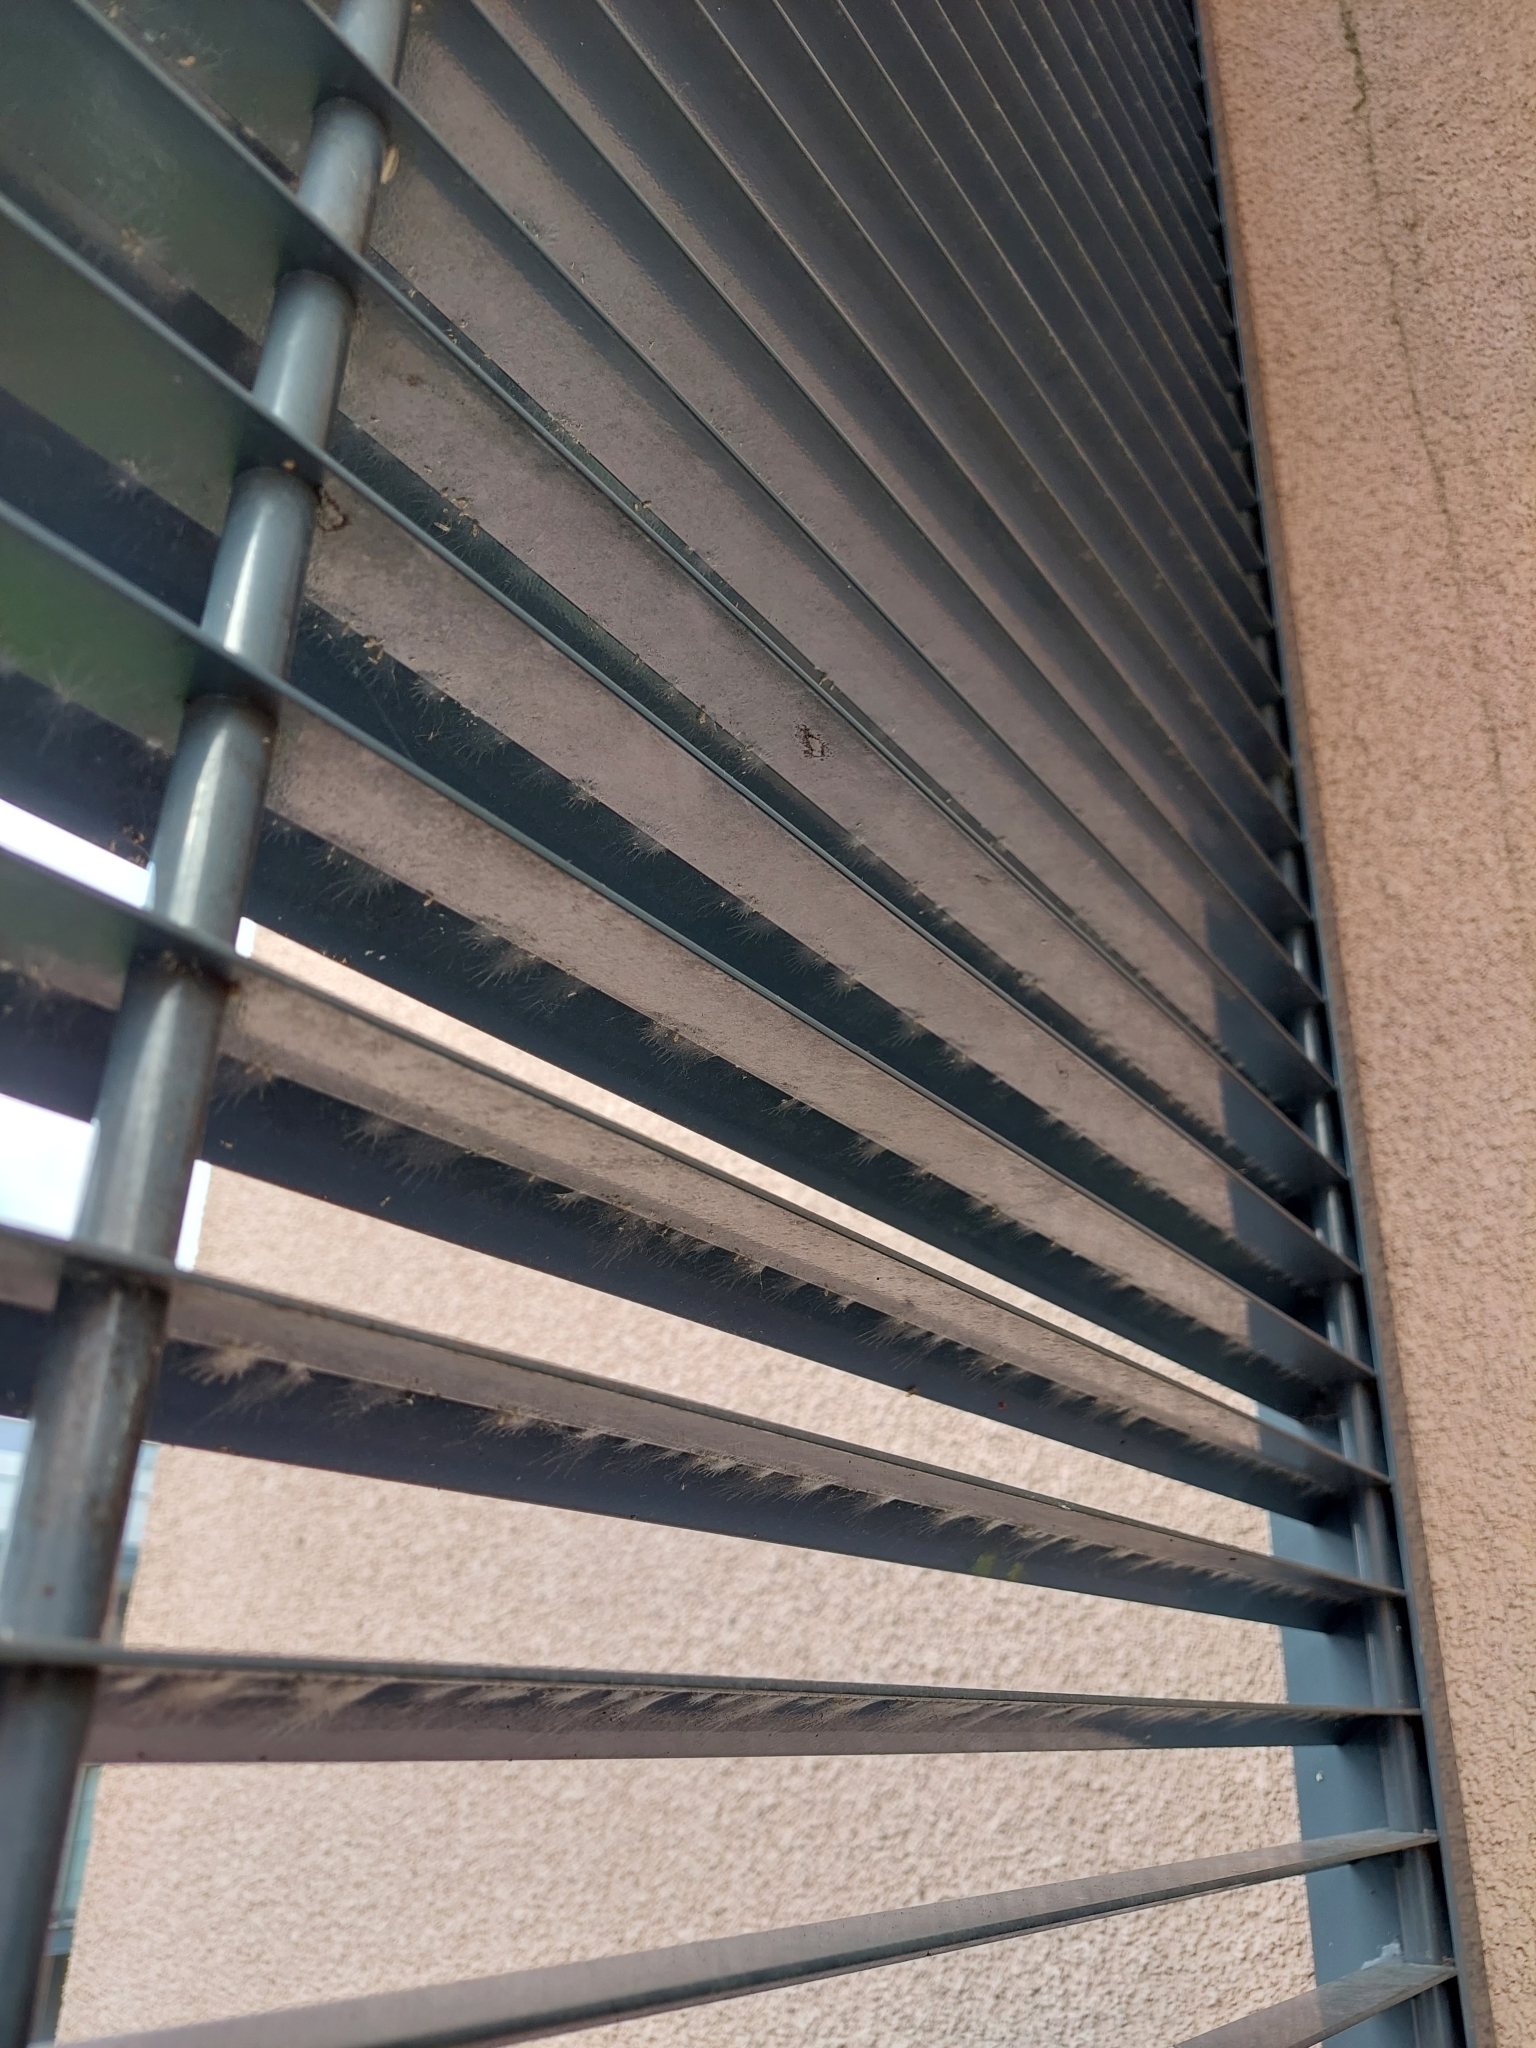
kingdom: Animalia
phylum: Arthropoda
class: Insecta
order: Psocodea
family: Stenopsocidae
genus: Graphopsocus
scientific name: Graphopsocus cruciatus
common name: Lizard bark louse
